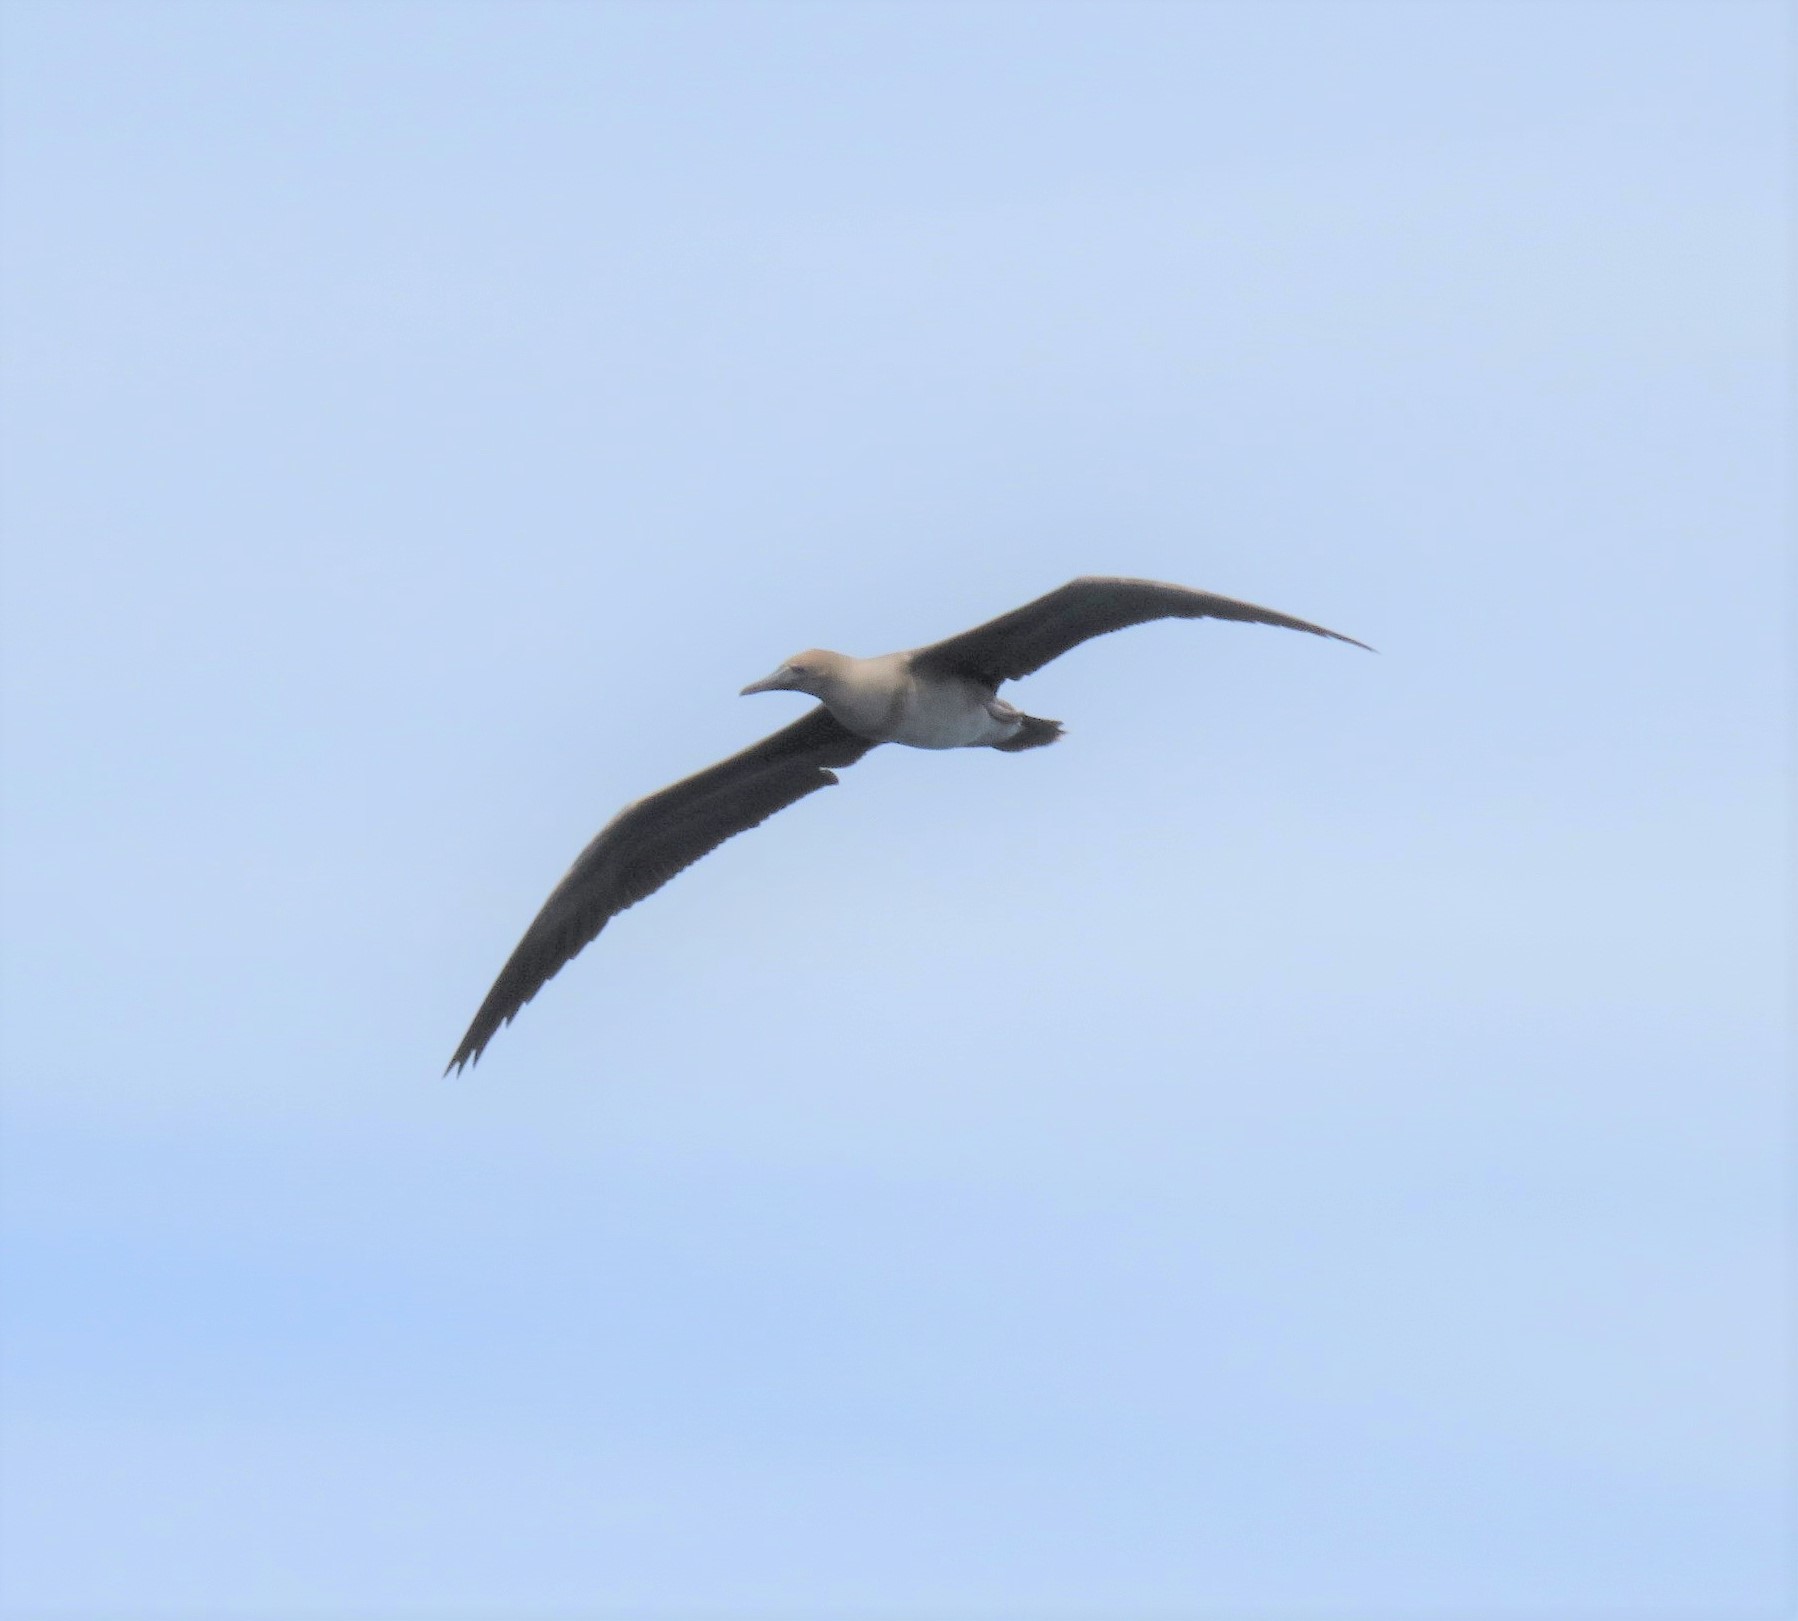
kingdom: Animalia
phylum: Chordata
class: Aves
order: Suliformes
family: Sulidae
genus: Sula
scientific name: Sula sula
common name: Red-footed booby
